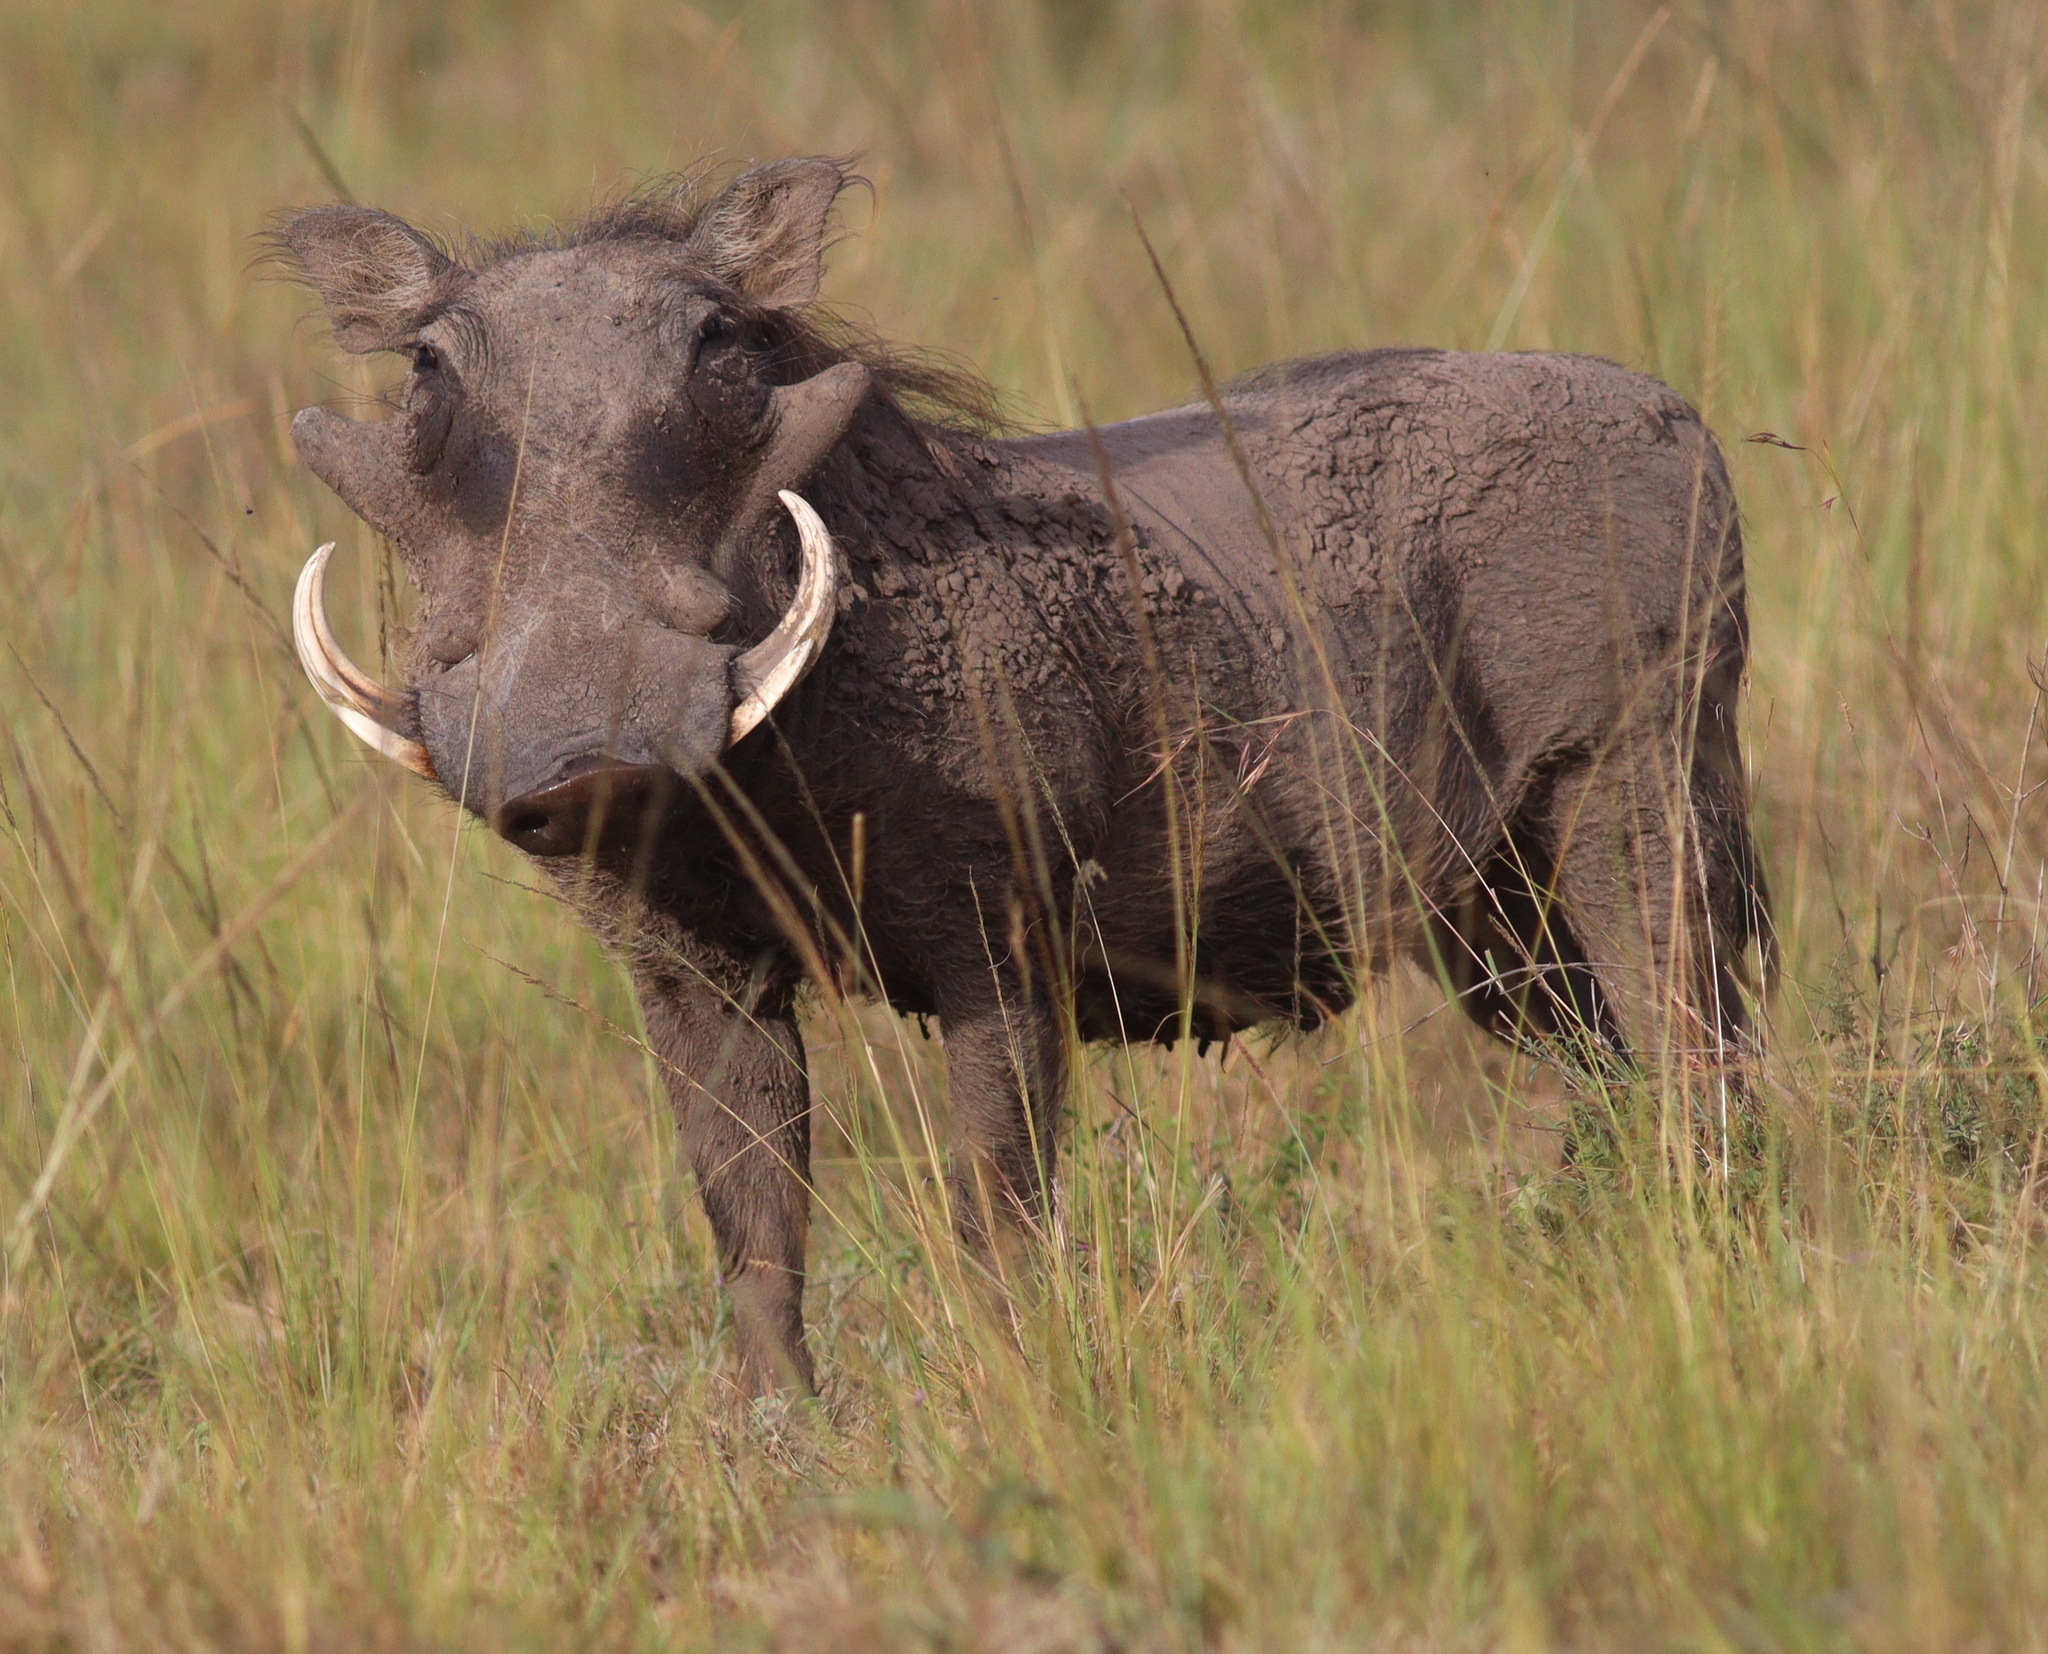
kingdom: Animalia
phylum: Chordata
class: Mammalia
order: Artiodactyla
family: Suidae
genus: Phacochoerus
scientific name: Phacochoerus africanus
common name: Common warthog
